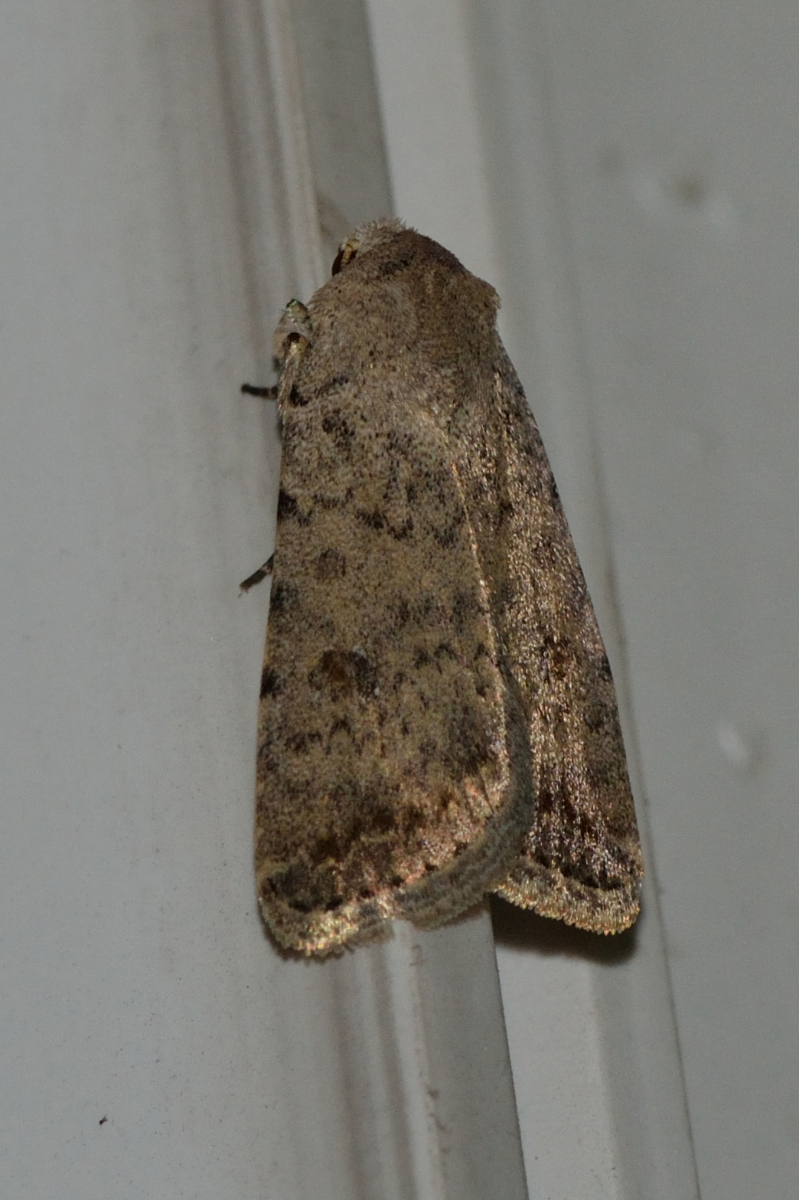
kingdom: Animalia
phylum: Arthropoda
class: Insecta
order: Lepidoptera
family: Noctuidae
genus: Caradrina
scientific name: Caradrina clavipalpis
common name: Pale mottled willow
